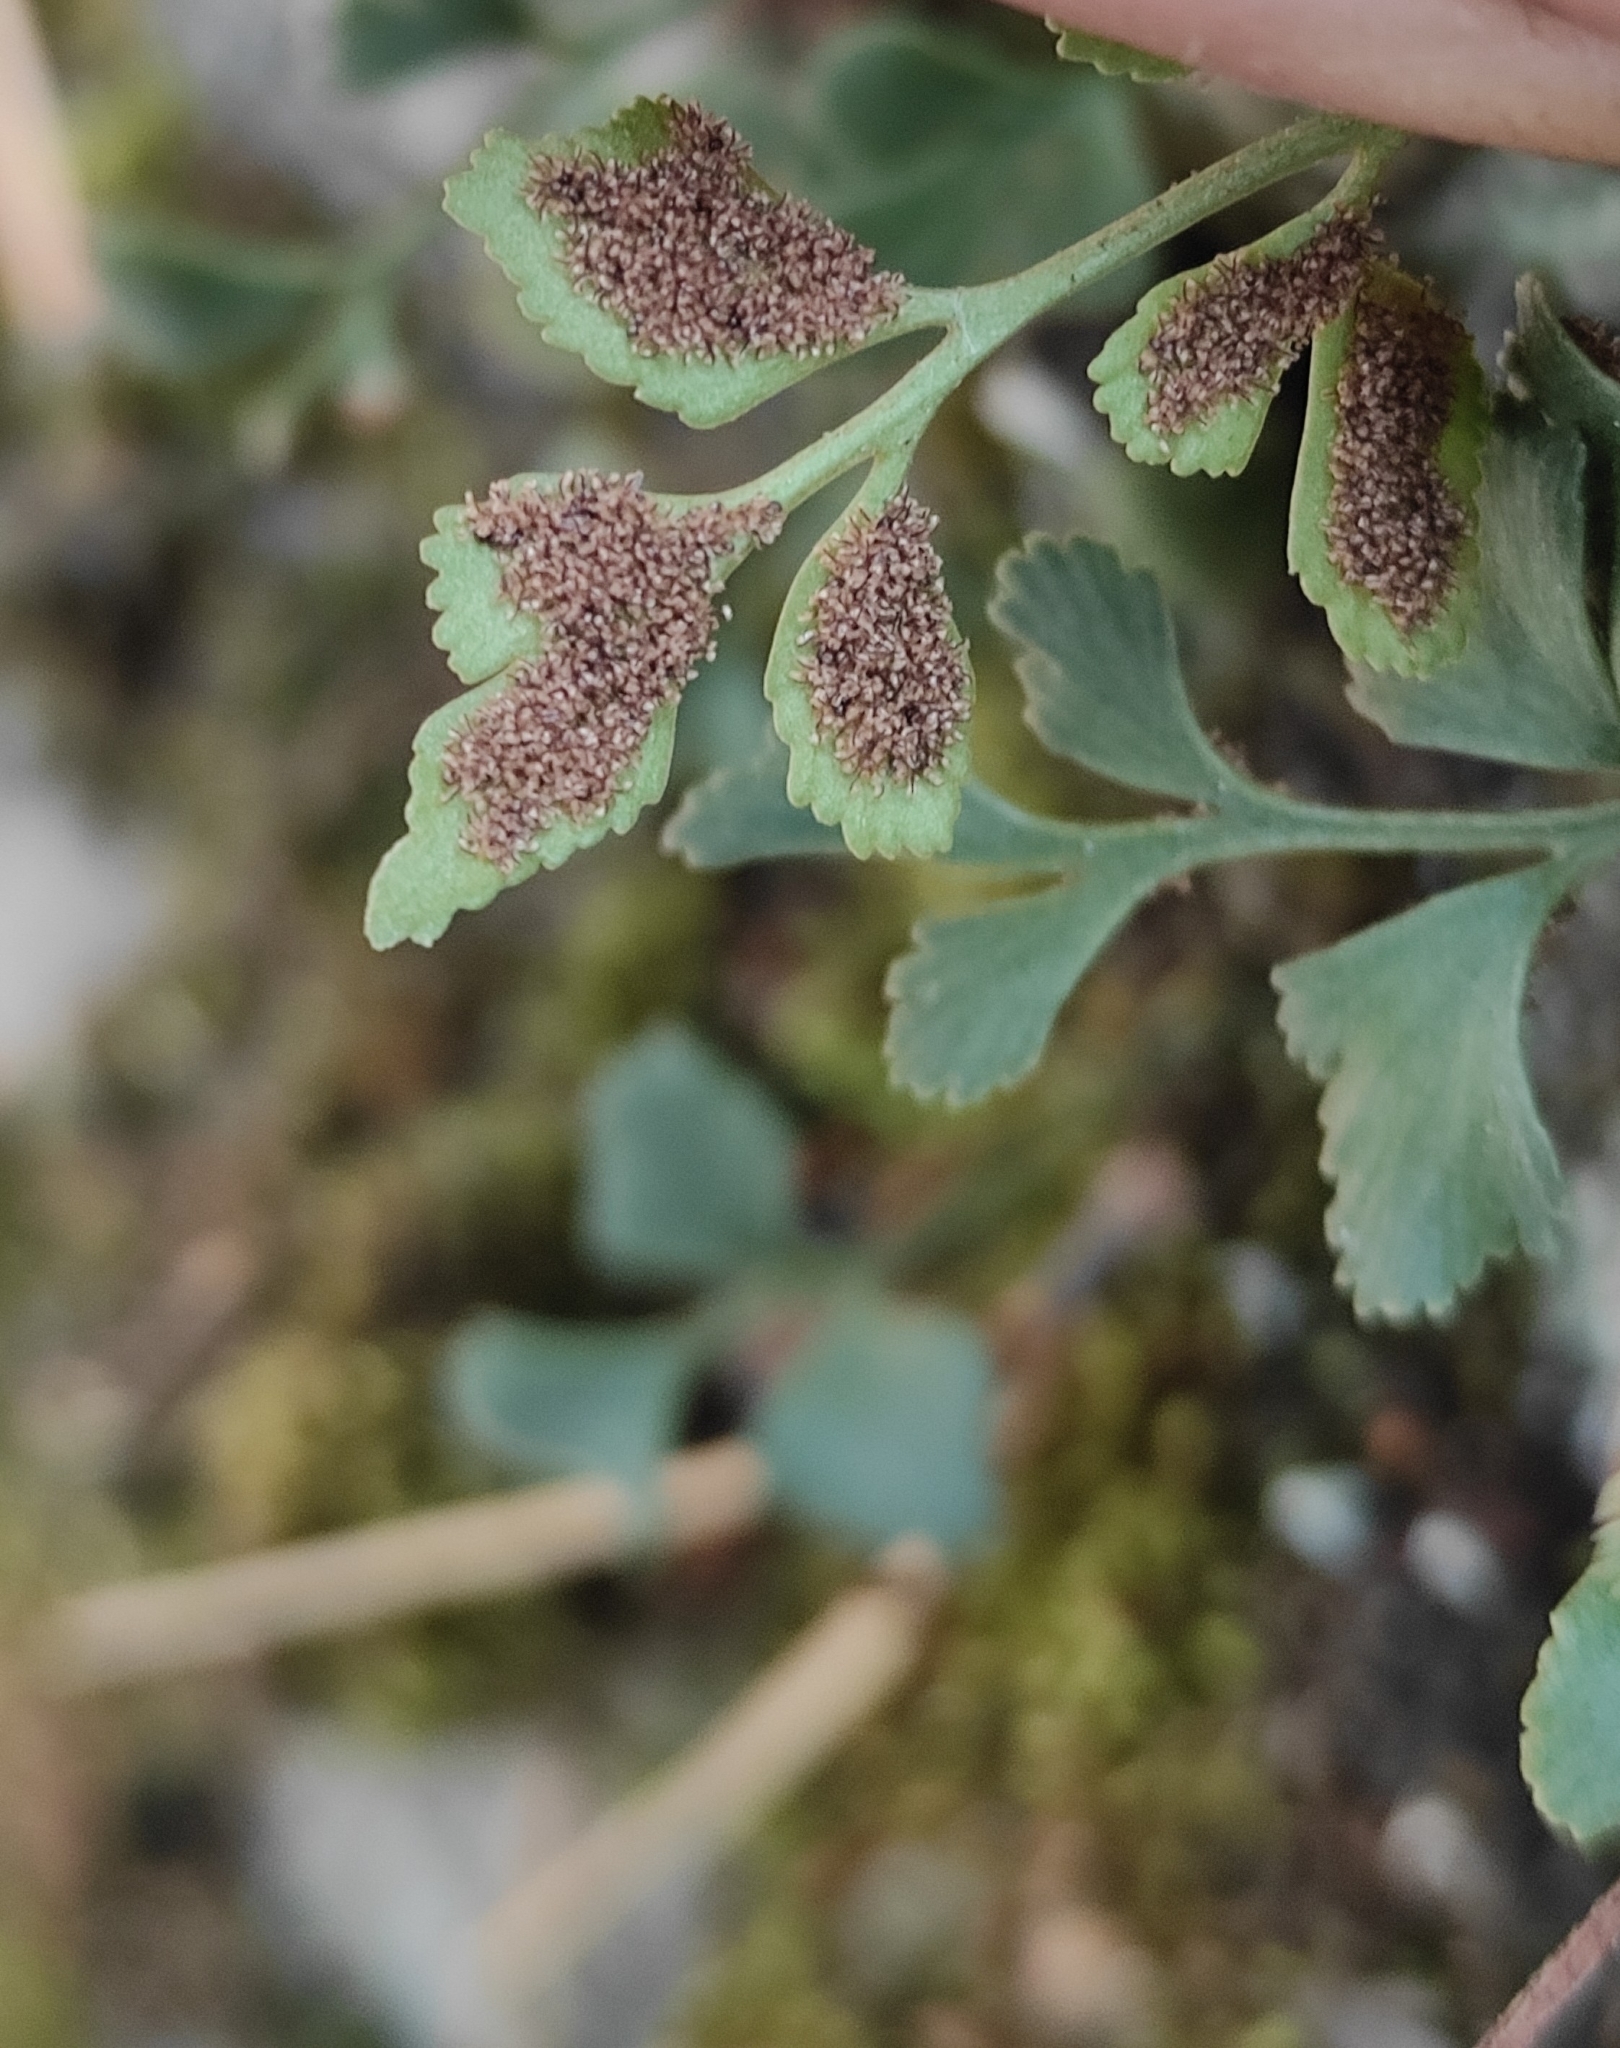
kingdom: Plantae
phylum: Tracheophyta
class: Polypodiopsida
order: Polypodiales
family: Aspleniaceae
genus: Asplenium
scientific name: Asplenium ruta-muraria
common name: Wall-rue
